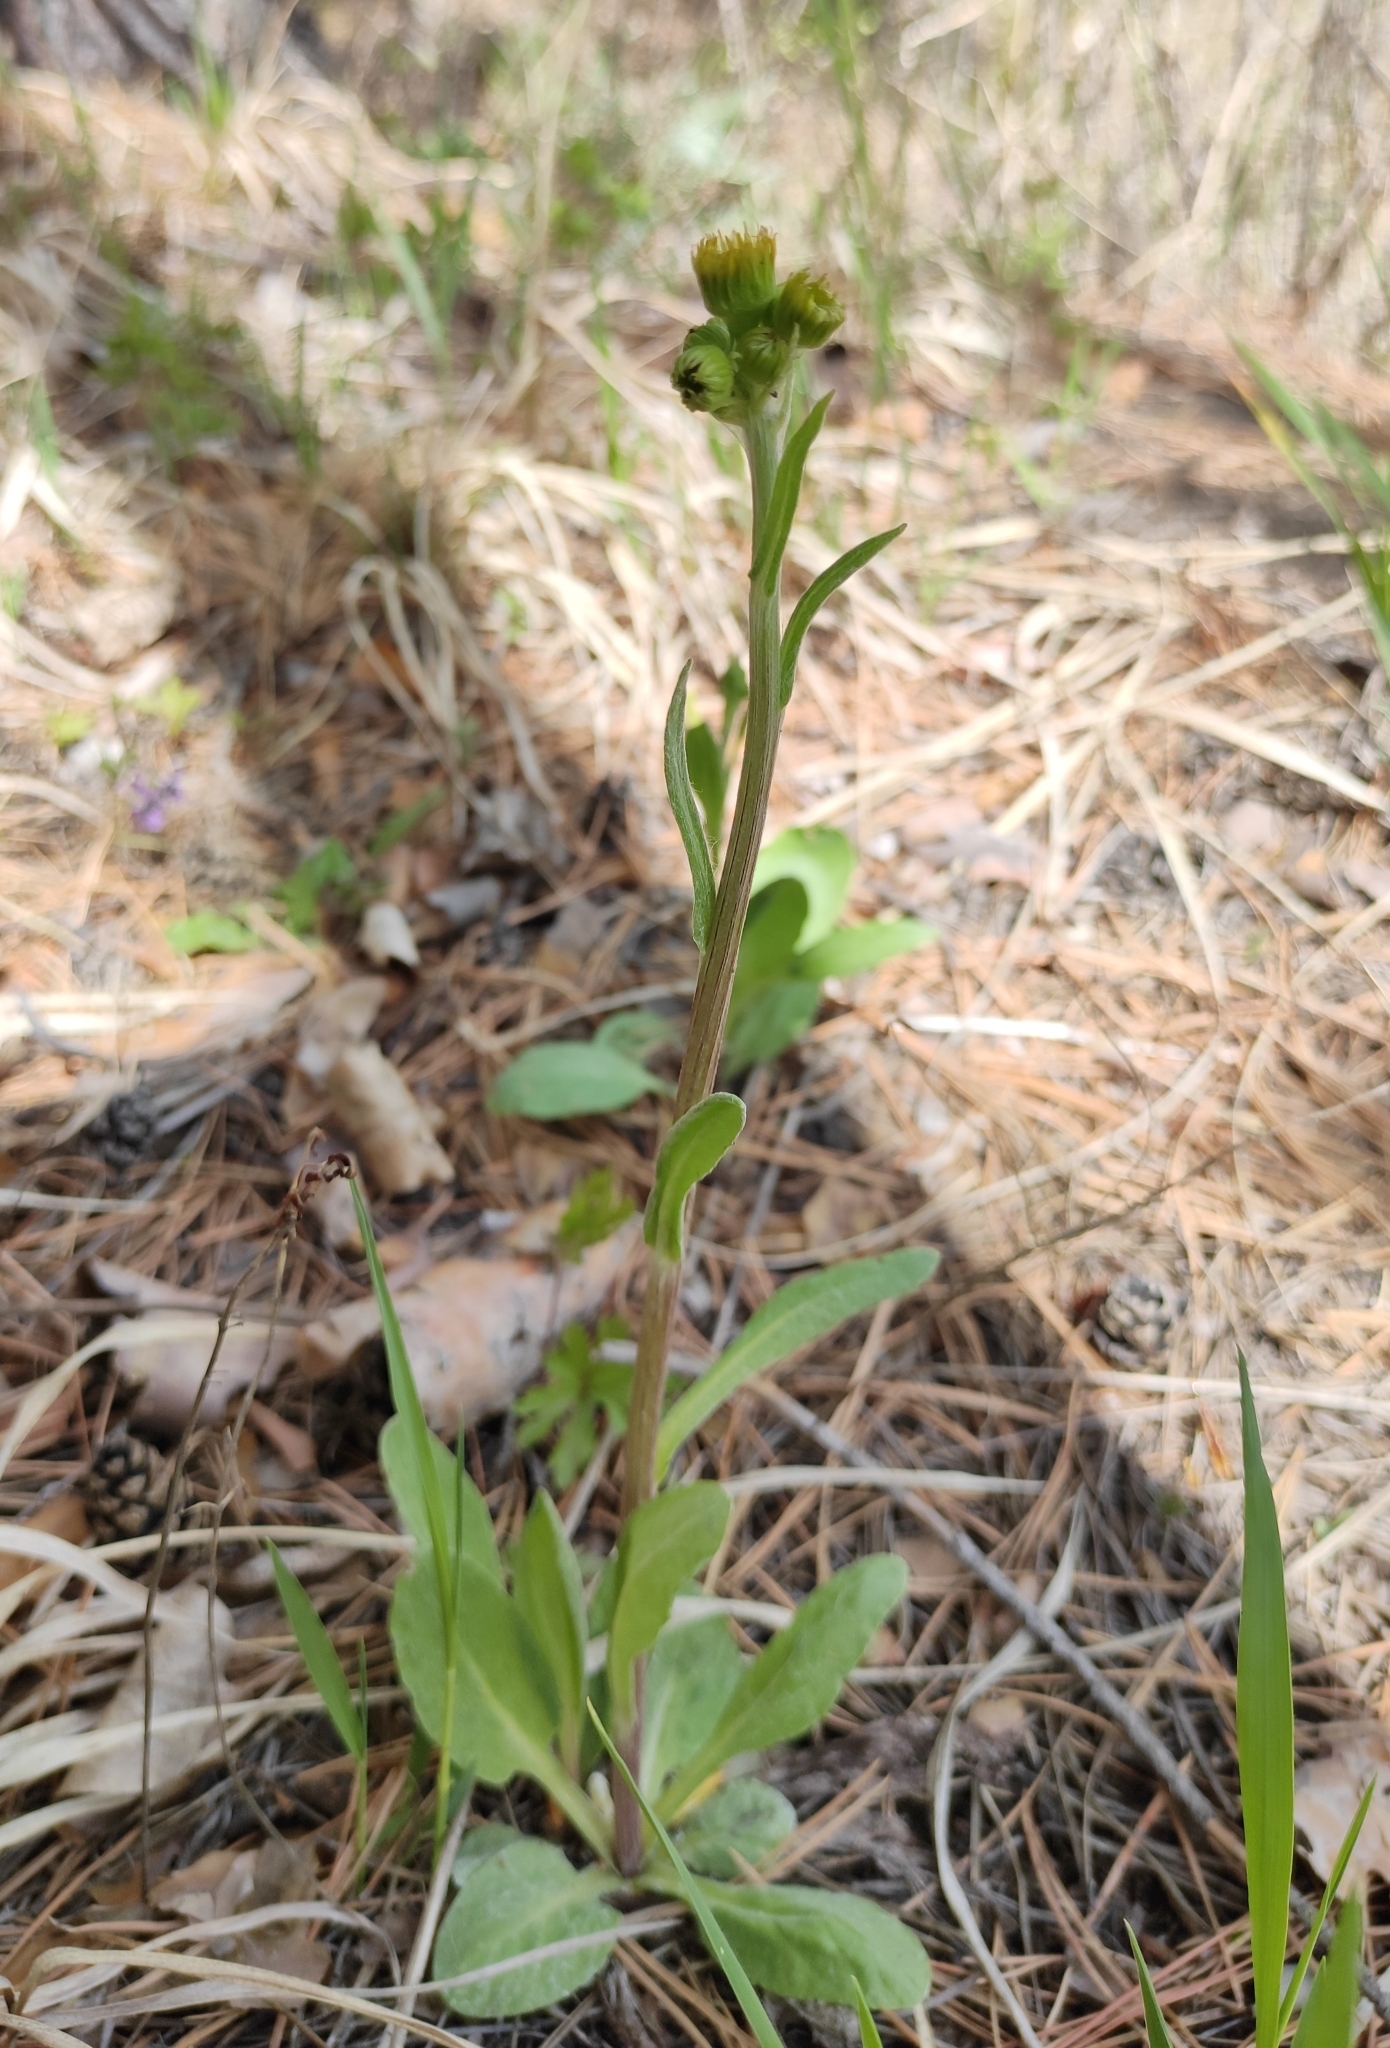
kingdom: Plantae
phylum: Tracheophyta
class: Magnoliopsida
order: Asterales
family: Asteraceae
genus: Tephroseris
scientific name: Tephroseris integrifolia
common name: Field fleawort
